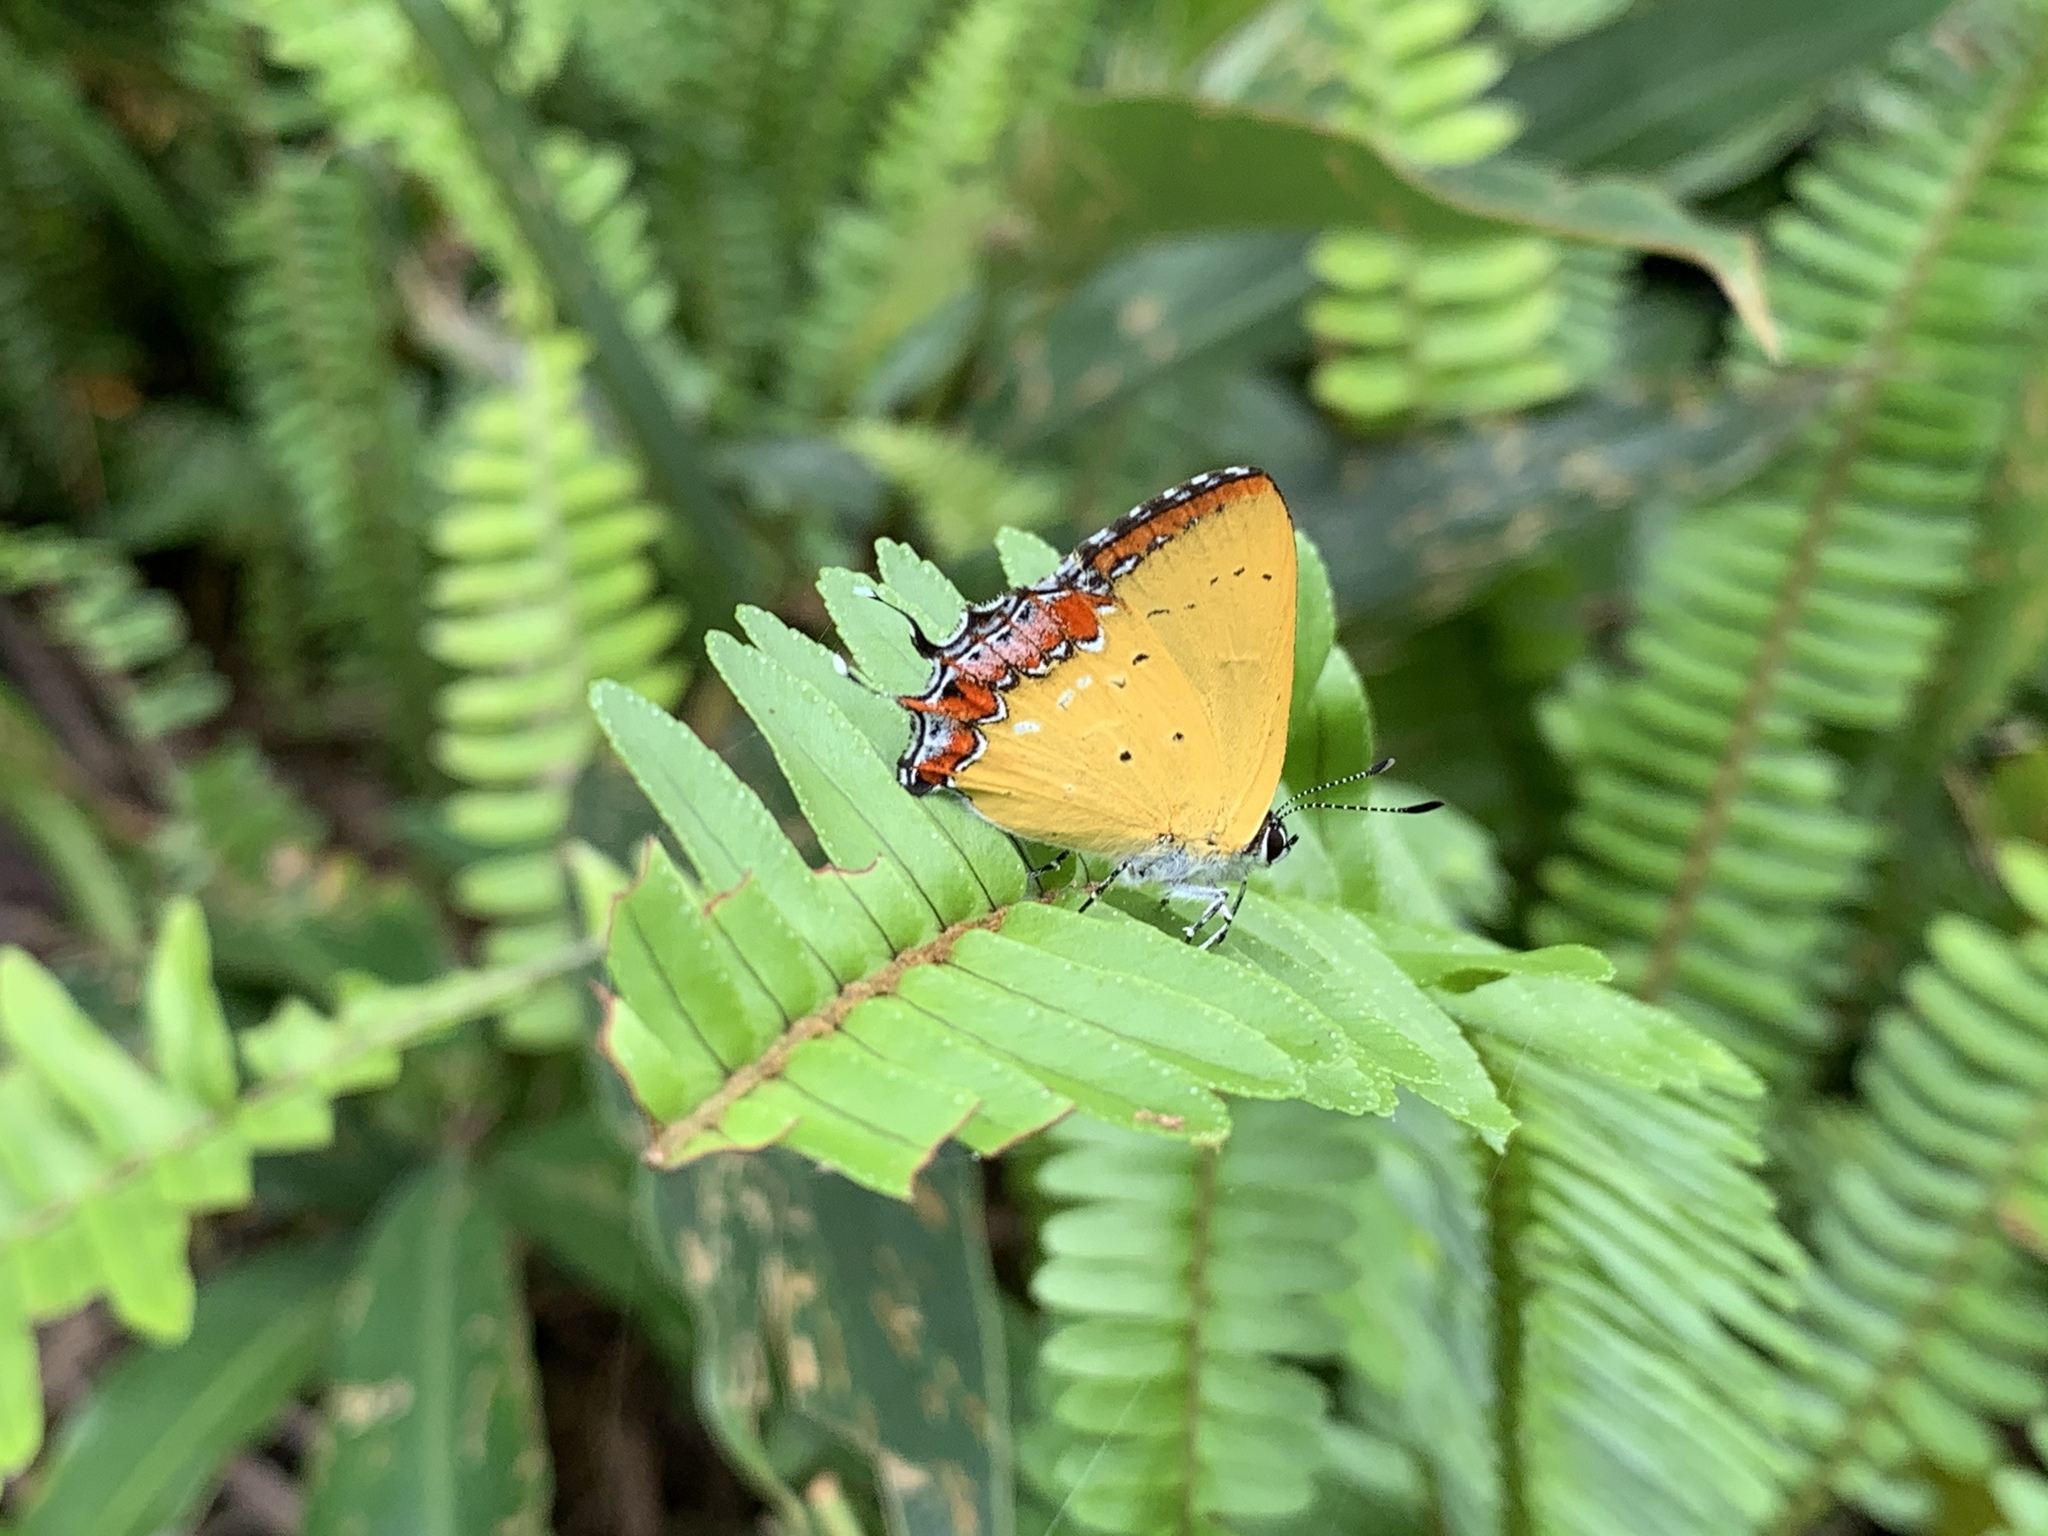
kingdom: Animalia
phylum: Arthropoda
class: Insecta
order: Lepidoptera
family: Lycaenidae
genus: Heliophorus
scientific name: Heliophorus ila
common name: Restricted purple sapphire
